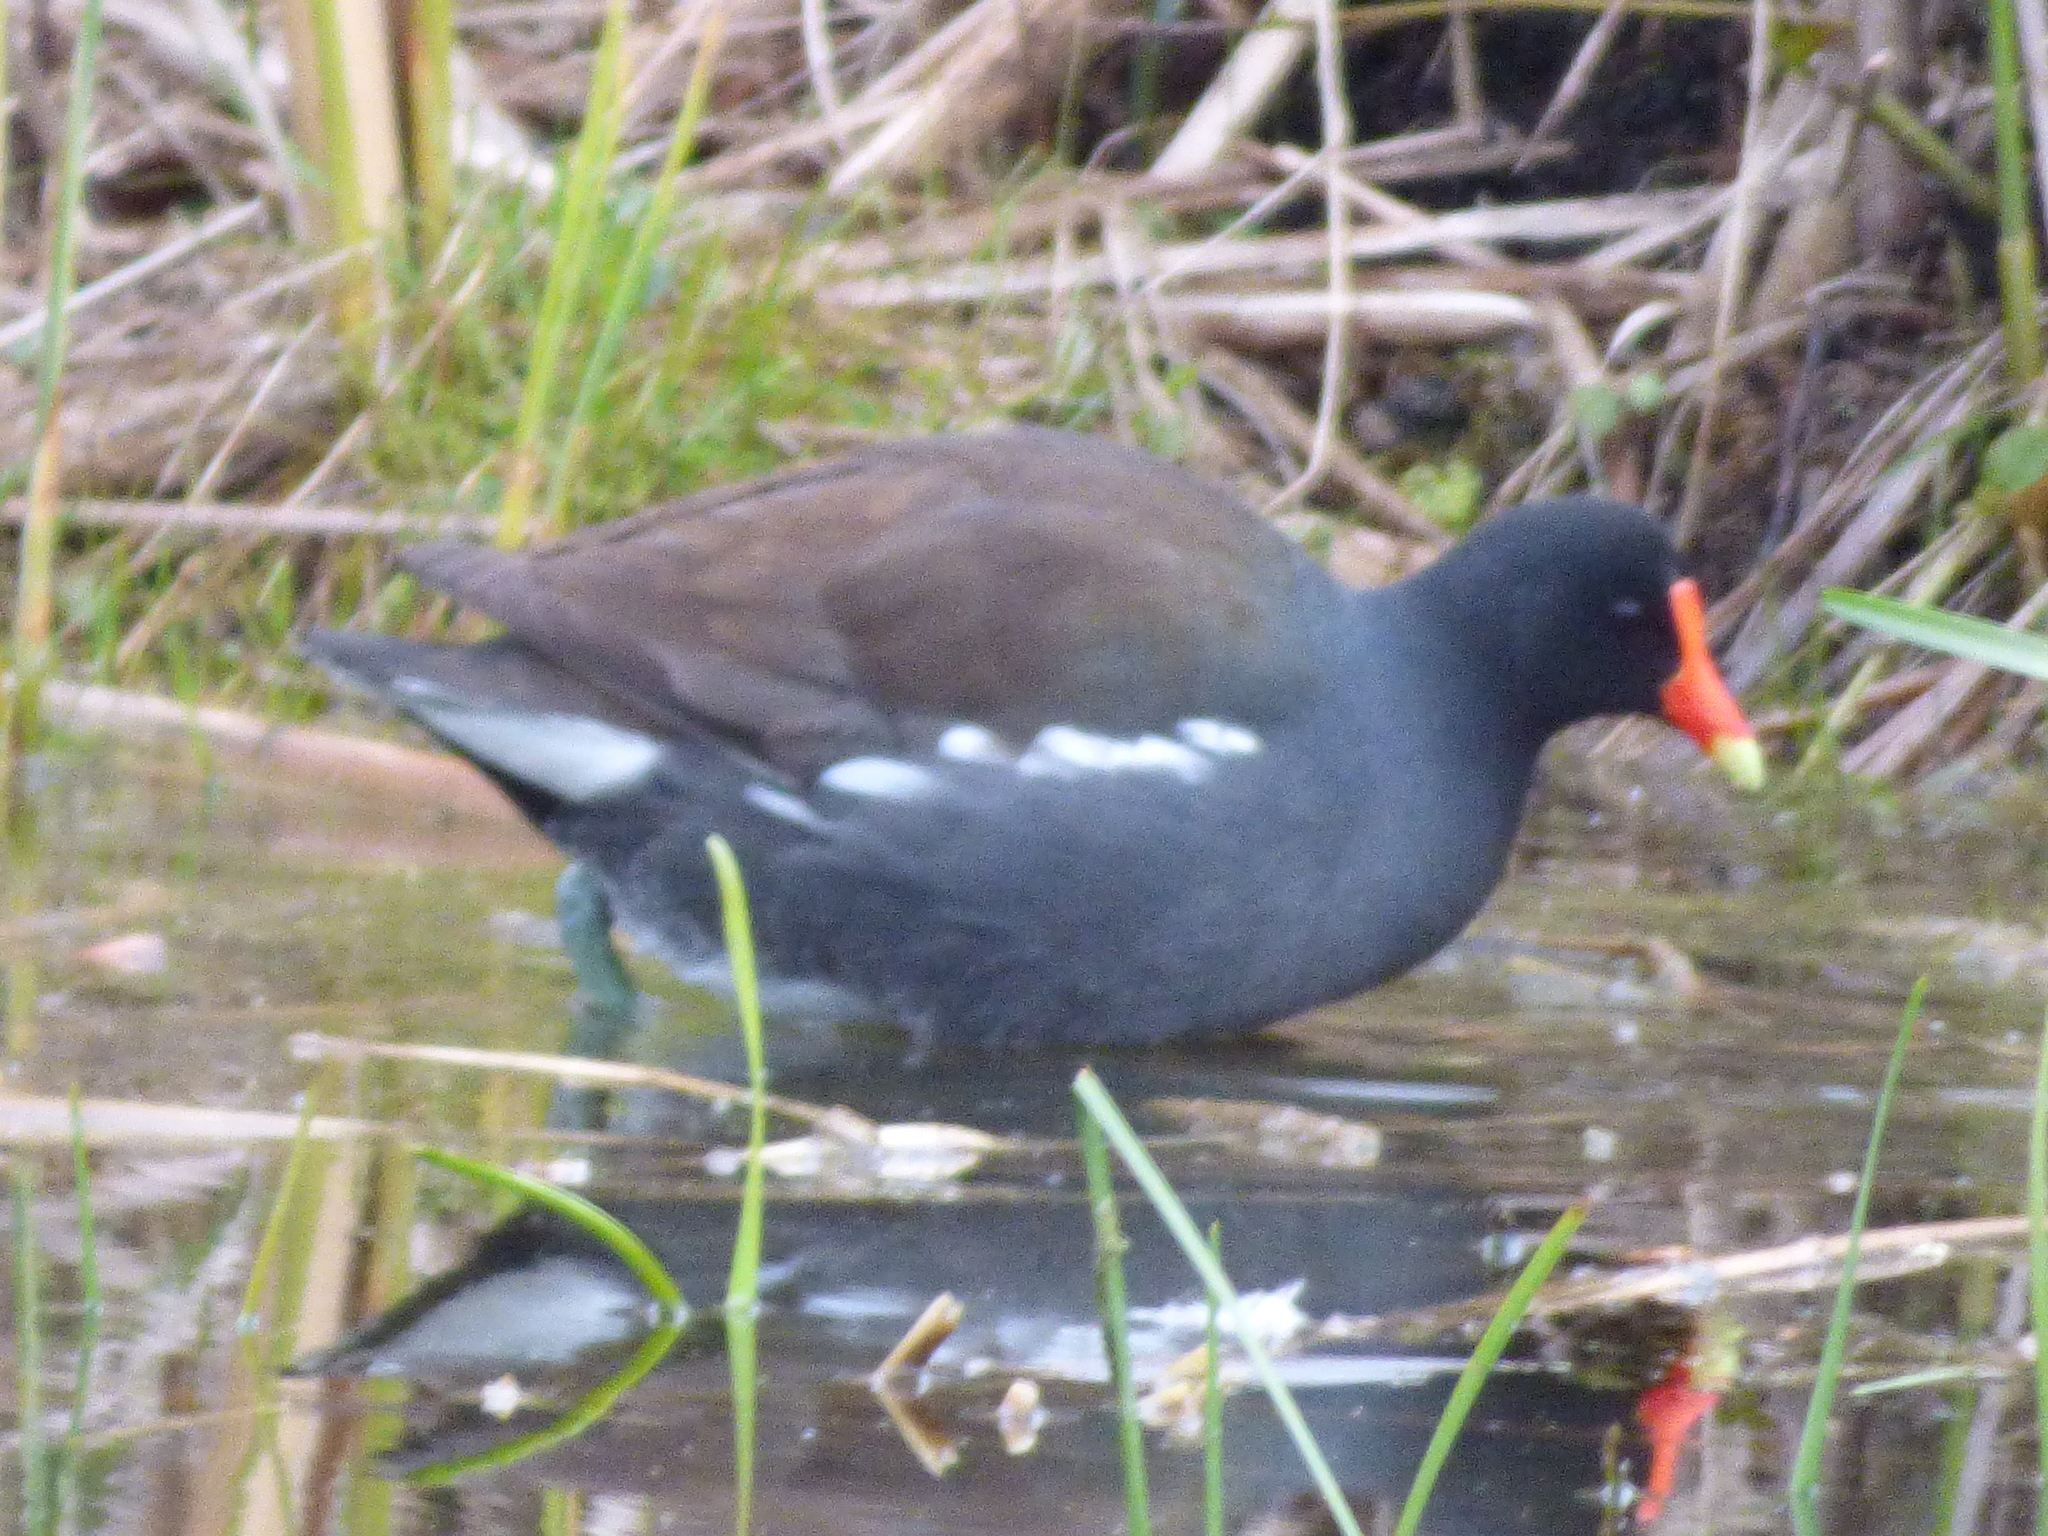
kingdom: Animalia
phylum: Chordata
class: Aves
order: Gruiformes
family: Rallidae
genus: Gallinula
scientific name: Gallinula chloropus
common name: Common moorhen
